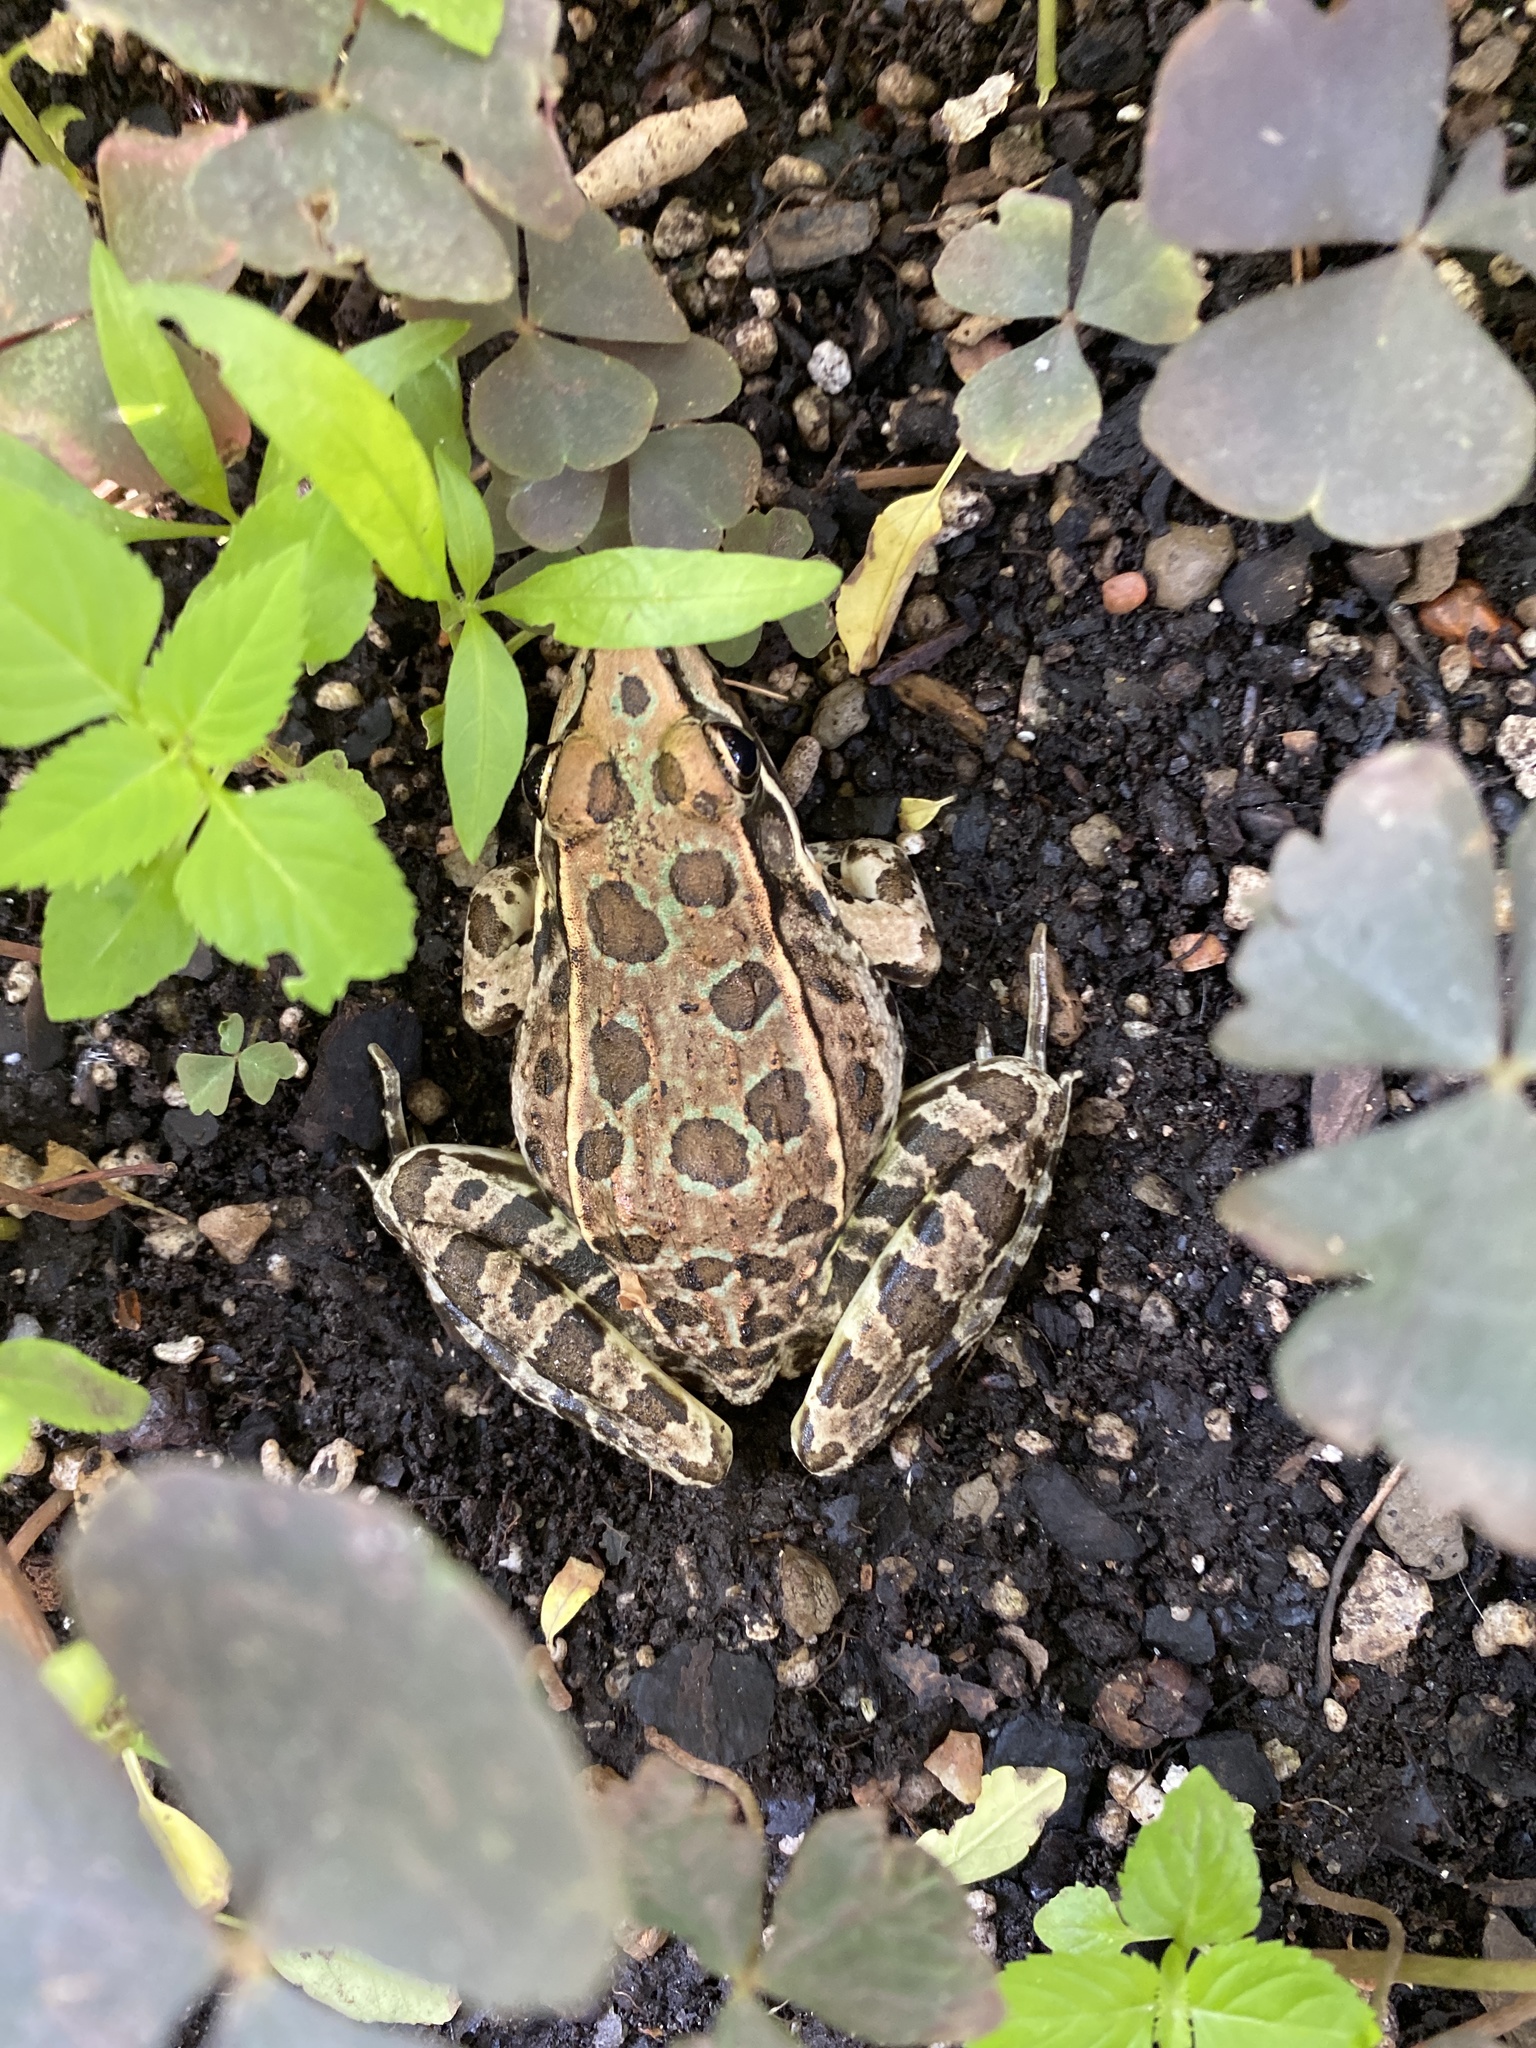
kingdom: Animalia
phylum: Chordata
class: Amphibia
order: Anura
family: Ranidae
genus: Lithobates
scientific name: Lithobates berlandieri
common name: Rio grande leopard frog
